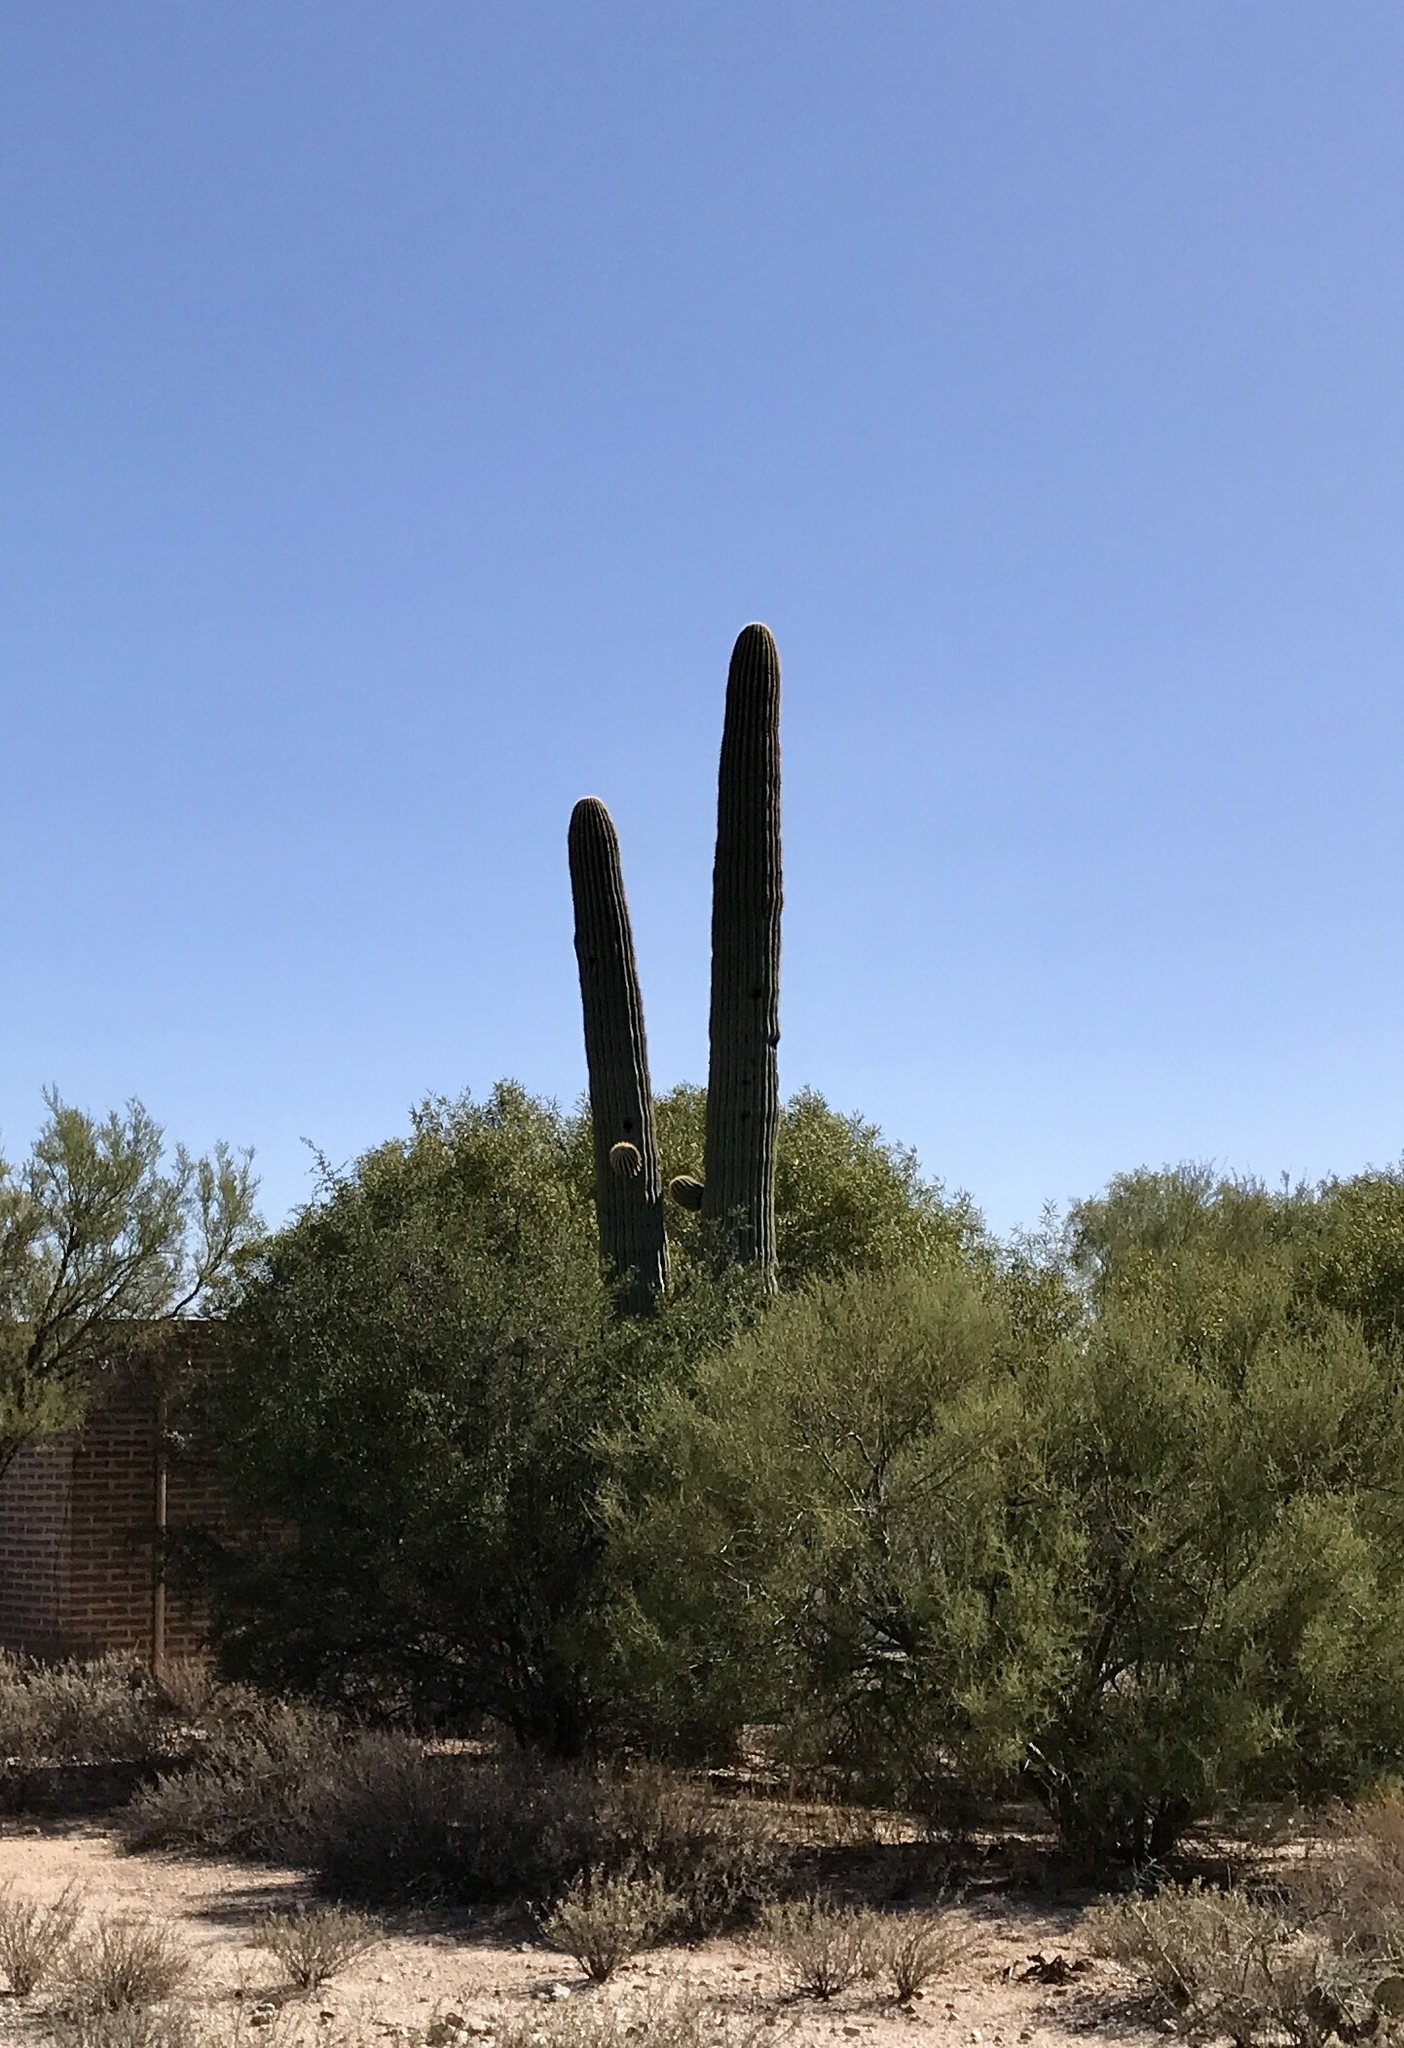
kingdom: Plantae
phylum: Tracheophyta
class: Magnoliopsida
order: Caryophyllales
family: Cactaceae
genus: Carnegiea
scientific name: Carnegiea gigantea
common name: Saguaro
